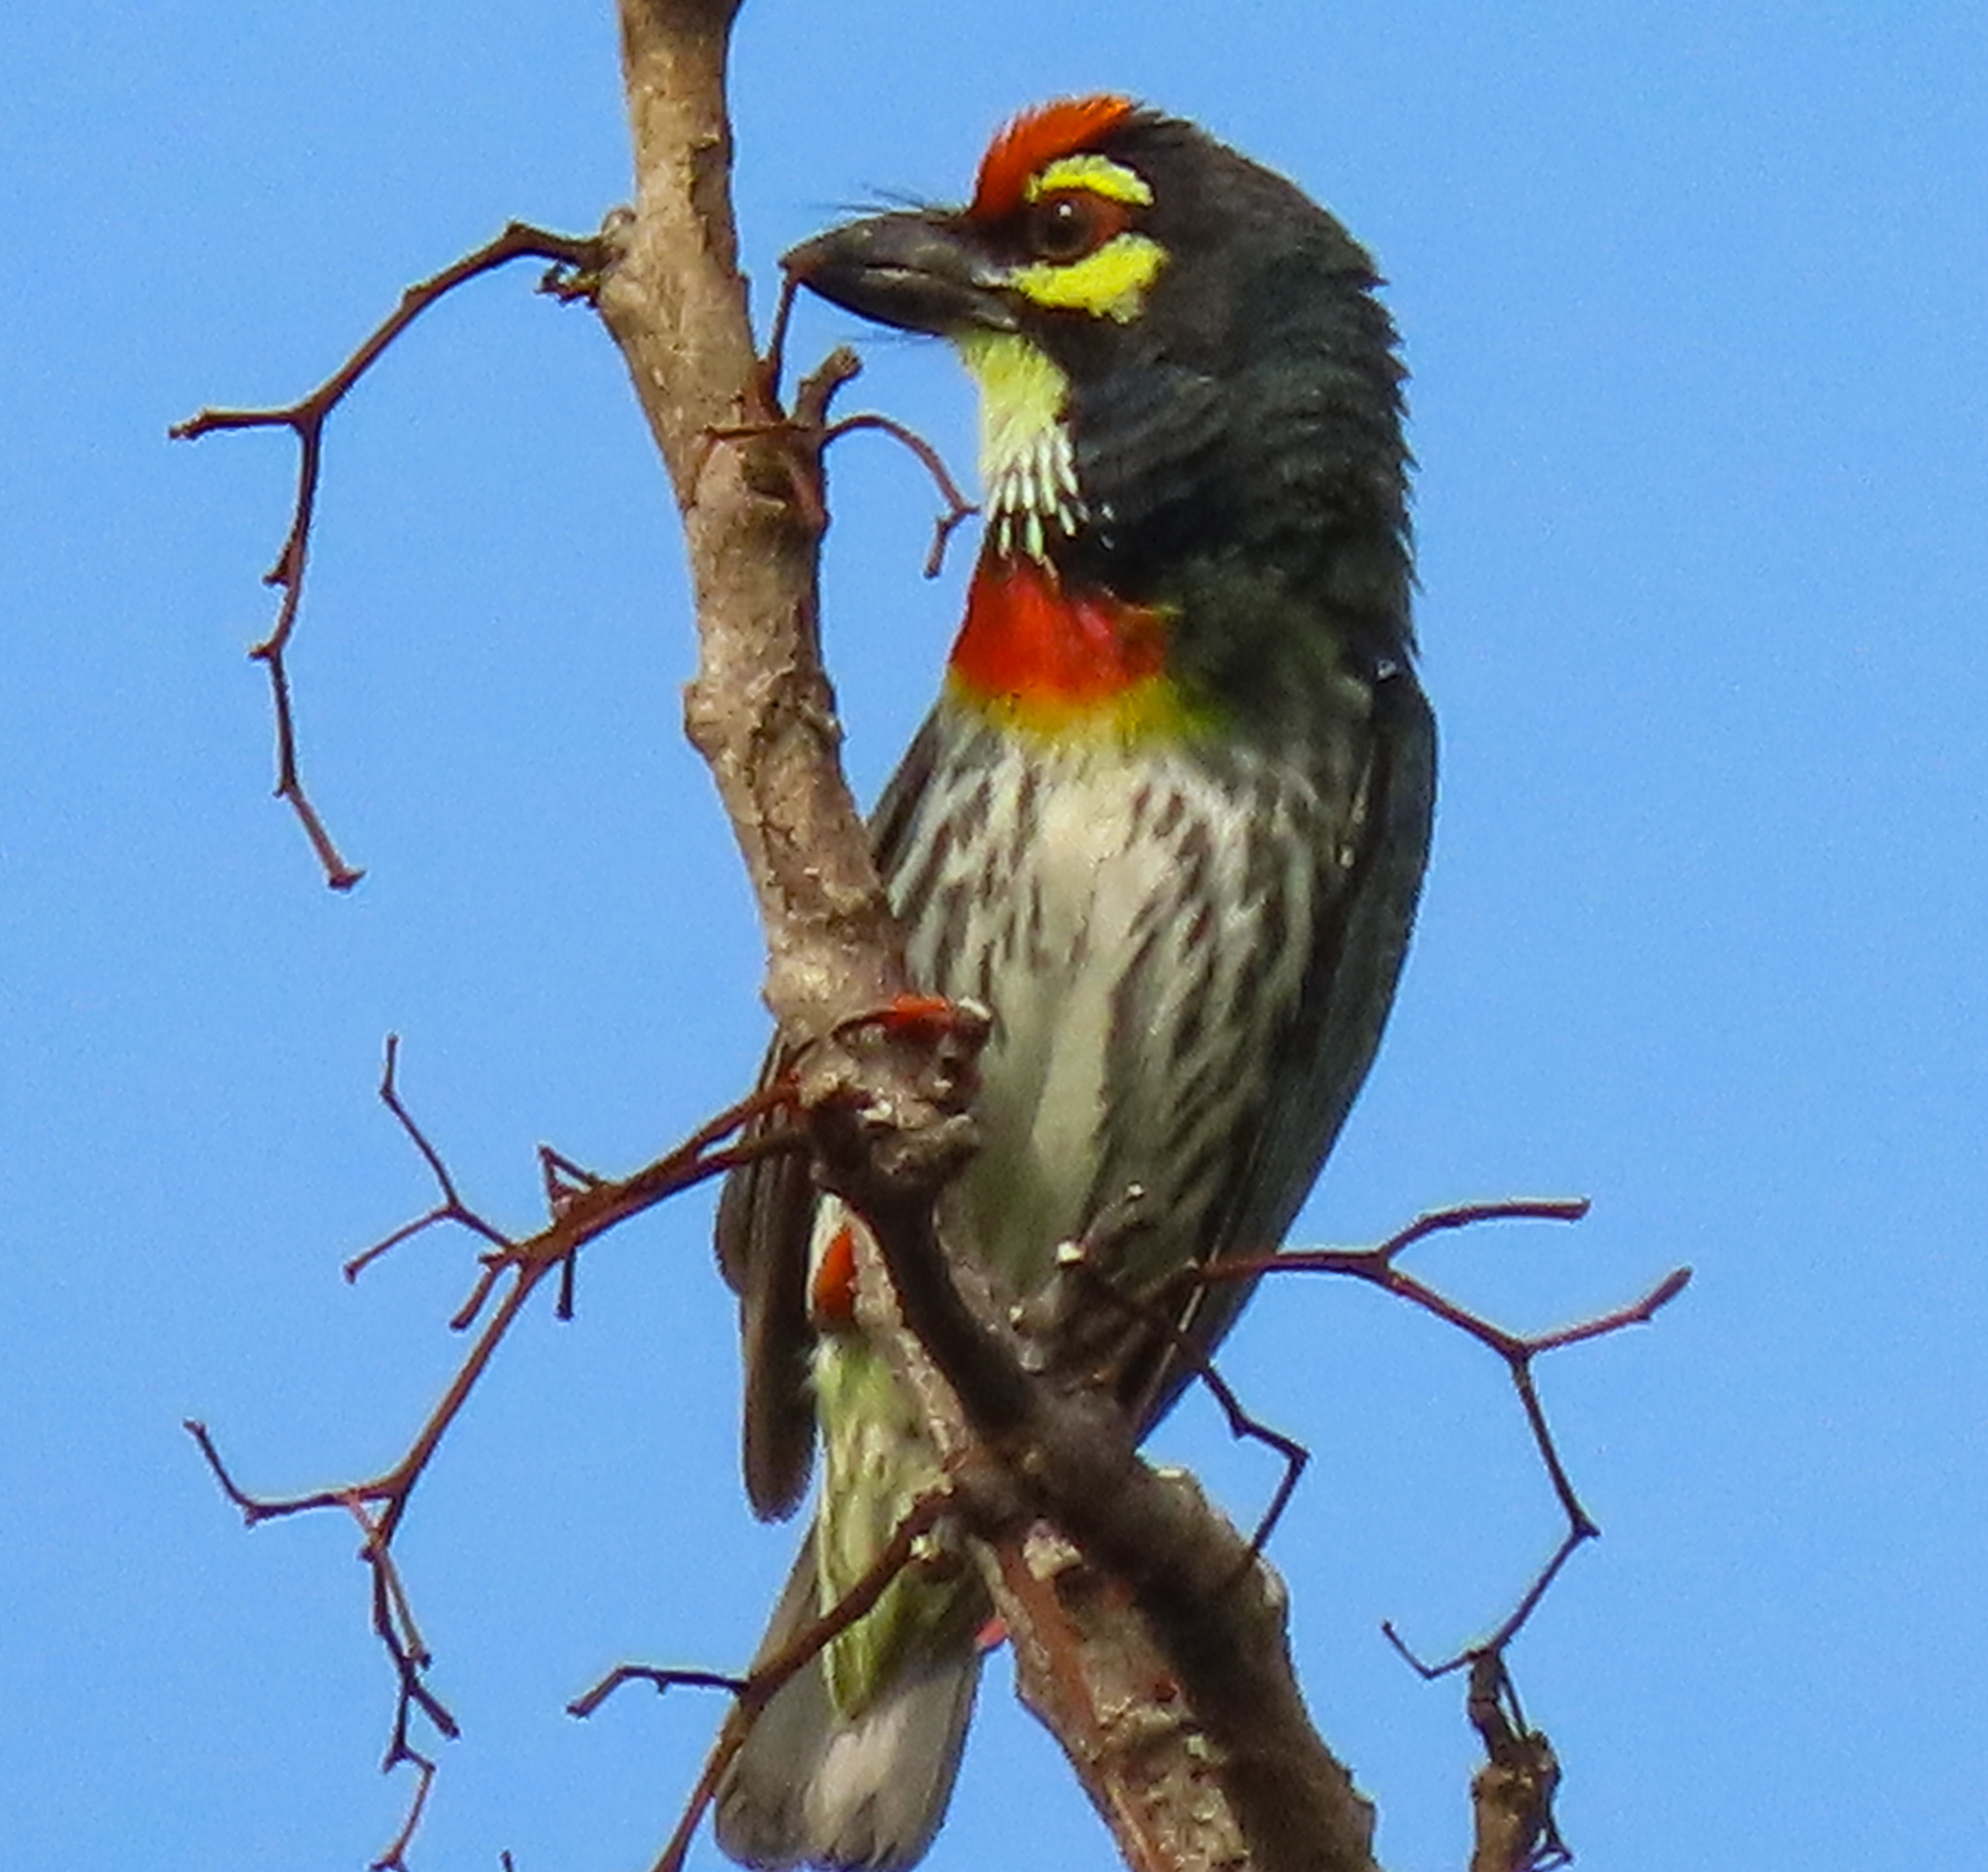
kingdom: Animalia
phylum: Chordata
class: Aves
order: Piciformes
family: Megalaimidae
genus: Psilopogon
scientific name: Psilopogon haemacephalus
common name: Coppersmith barbet
